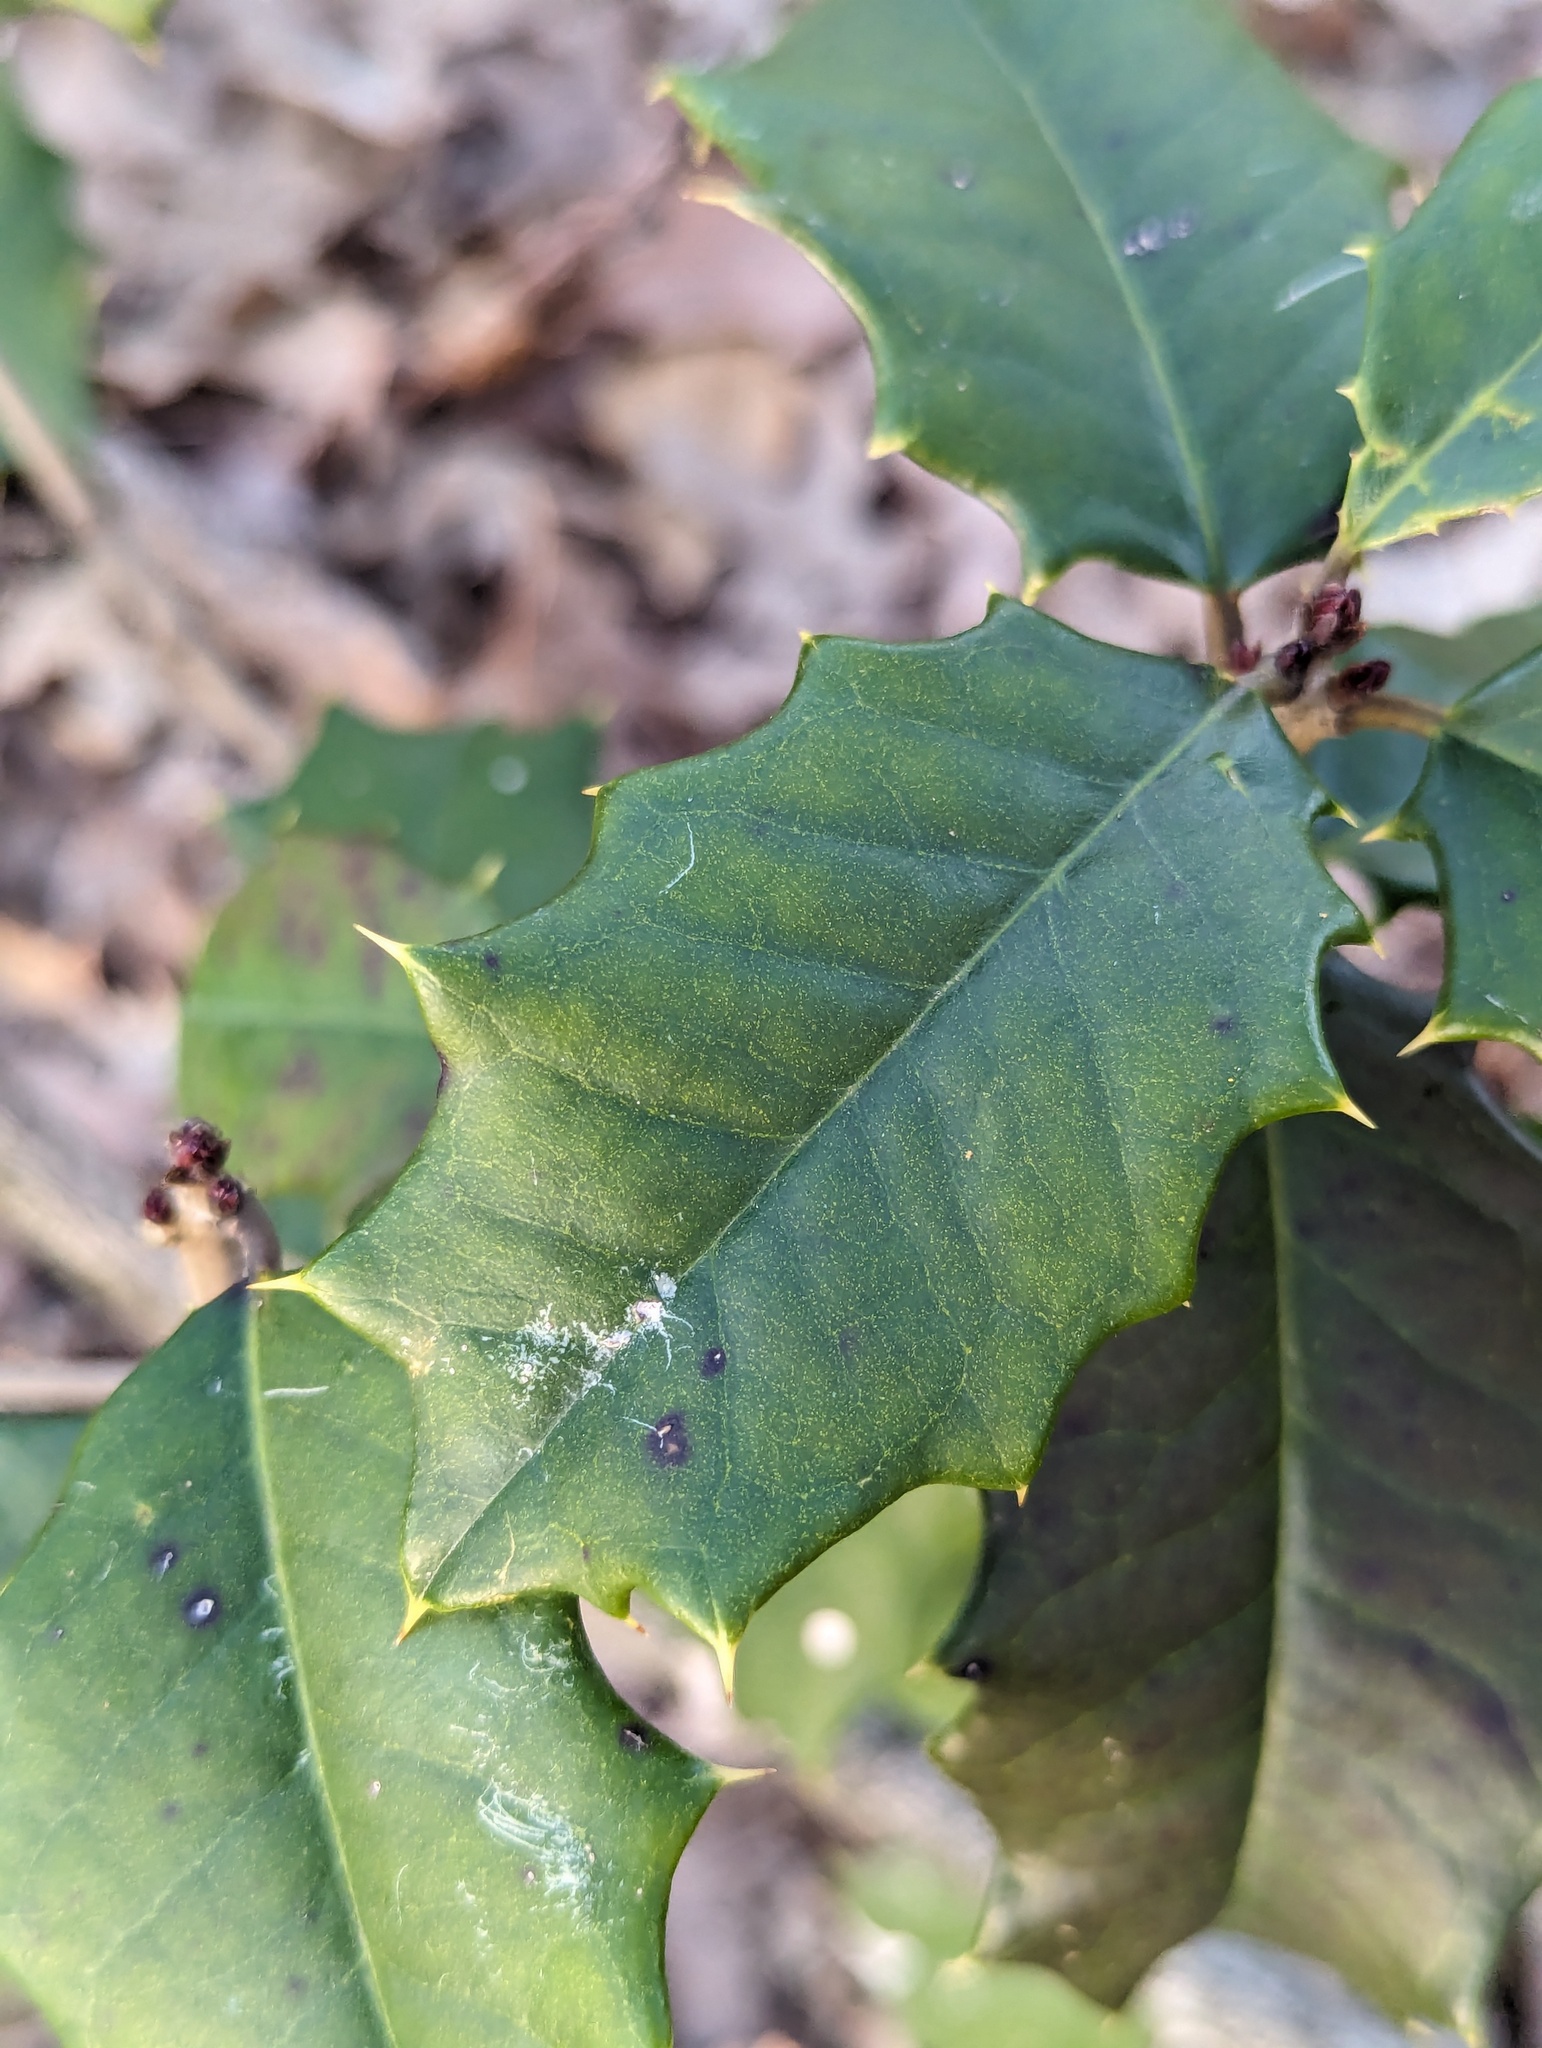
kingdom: Plantae
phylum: Tracheophyta
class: Magnoliopsida
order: Aquifoliales
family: Aquifoliaceae
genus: Ilex
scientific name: Ilex opaca
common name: American holly
